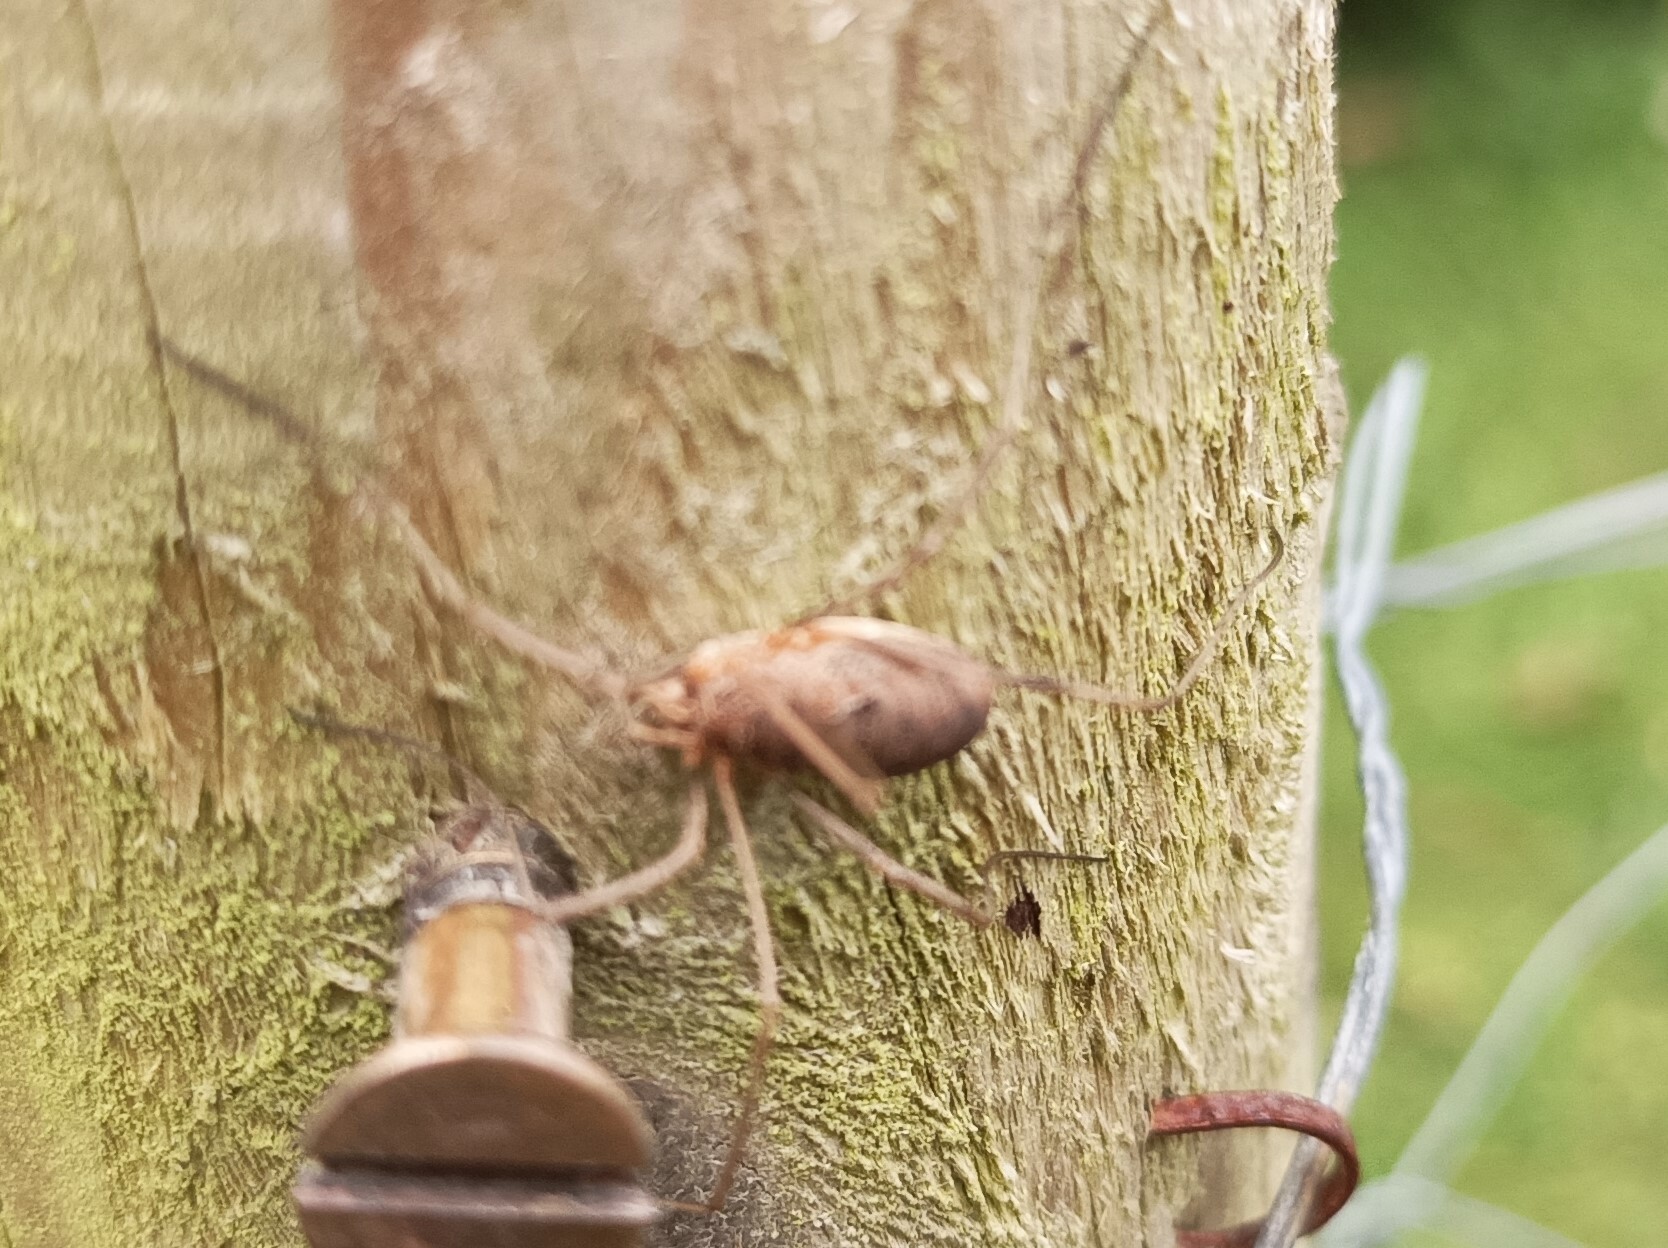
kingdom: Animalia
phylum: Arthropoda
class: Arachnida
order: Opiliones
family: Phalangiidae
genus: Phalangium
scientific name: Phalangium opilio
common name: Daddy longleg
